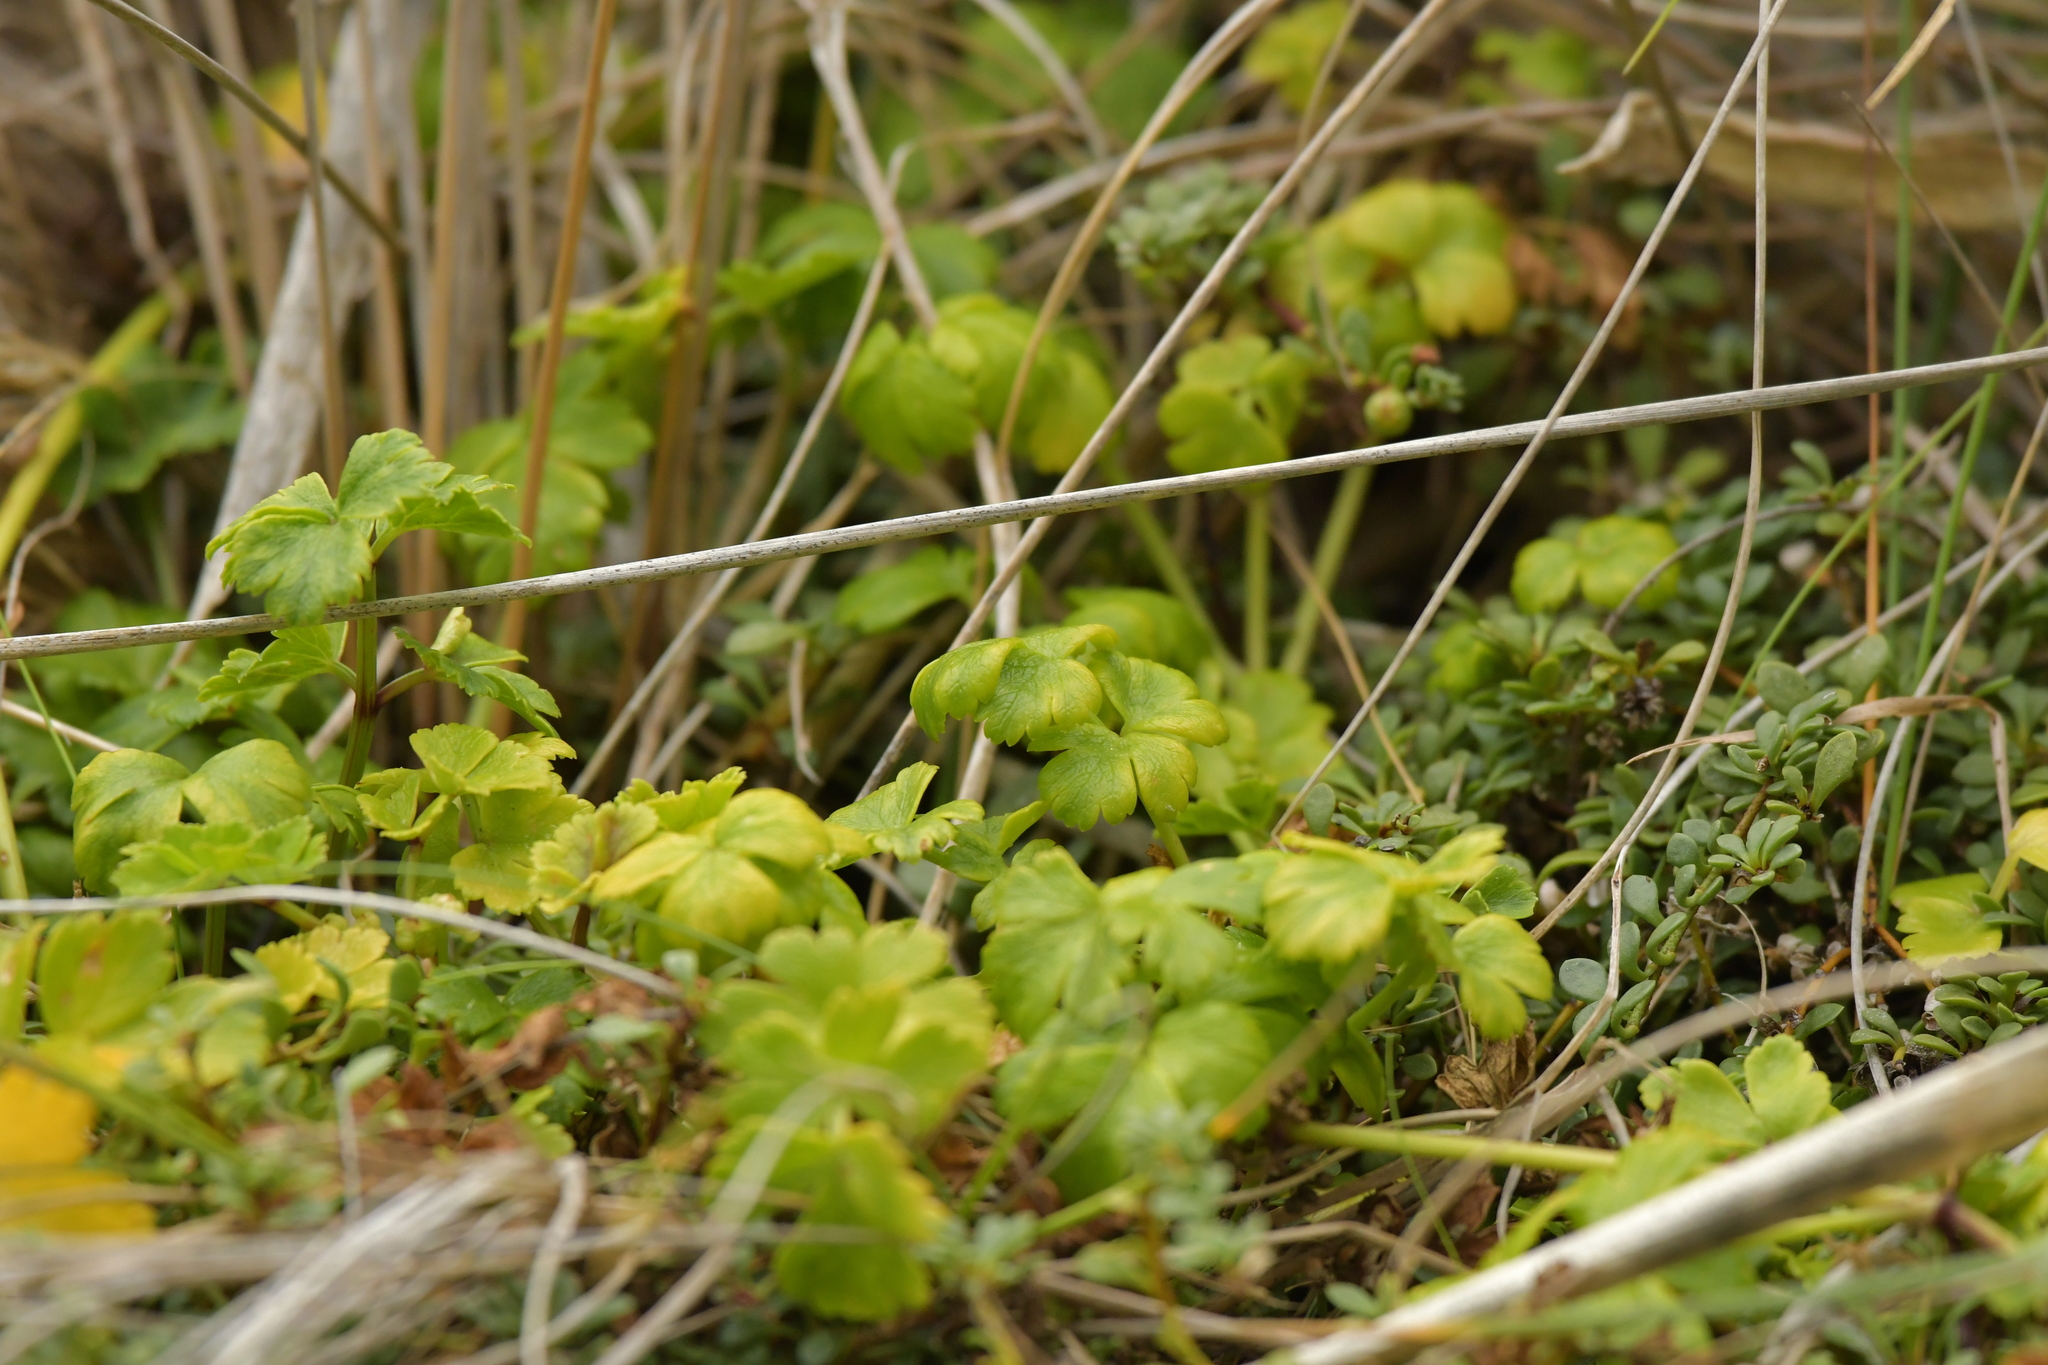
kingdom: Plantae
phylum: Tracheophyta
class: Magnoliopsida
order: Geraniales
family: Geraniaceae
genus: Geranium
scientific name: Geranium traversii
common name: Cranesbill
